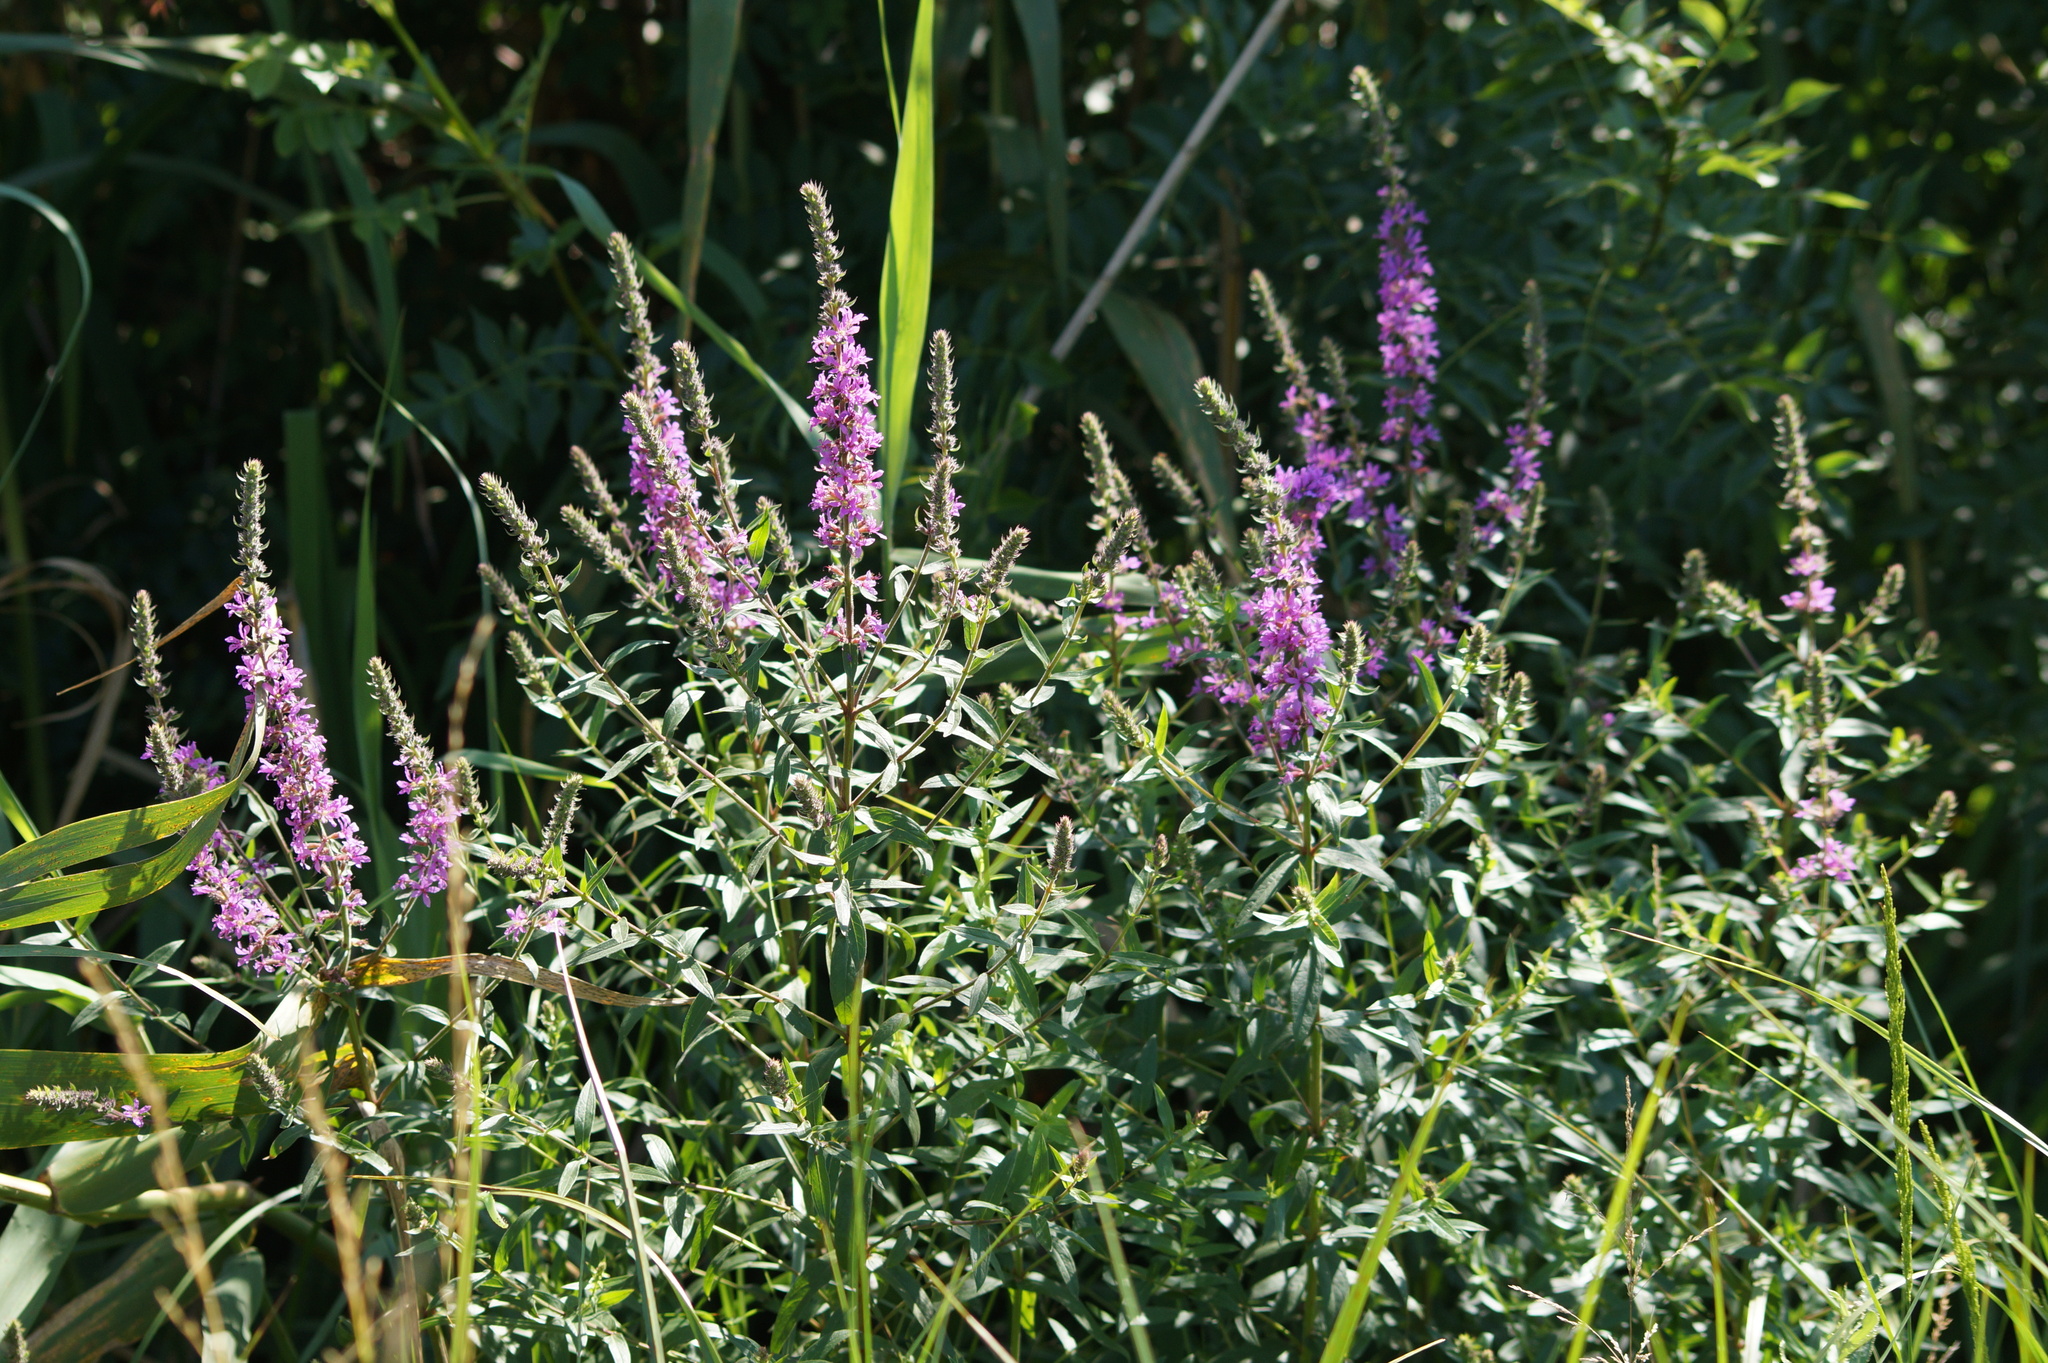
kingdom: Plantae
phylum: Tracheophyta
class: Magnoliopsida
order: Myrtales
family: Lythraceae
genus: Lythrum
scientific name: Lythrum salicaria
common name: Purple loosestrife
